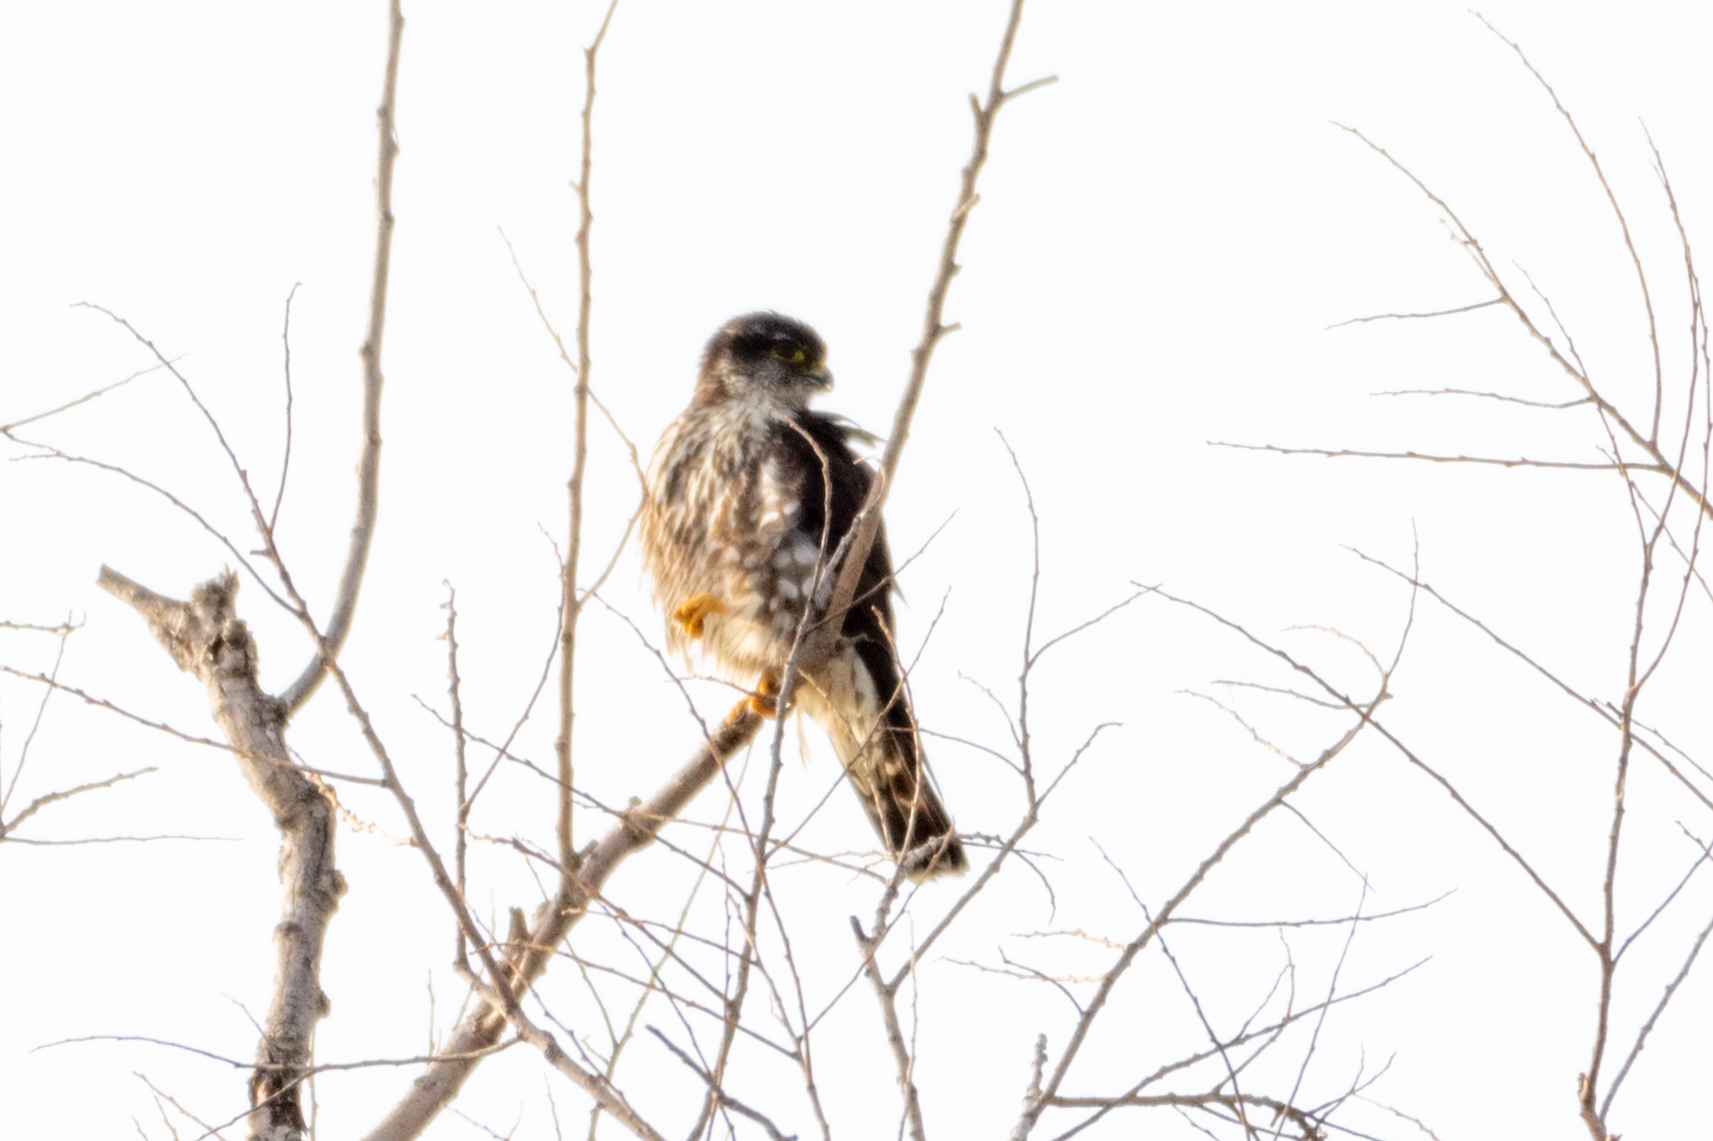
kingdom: Animalia
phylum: Chordata
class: Aves
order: Falconiformes
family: Falconidae
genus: Falco
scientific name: Falco columbarius
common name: Merlin
